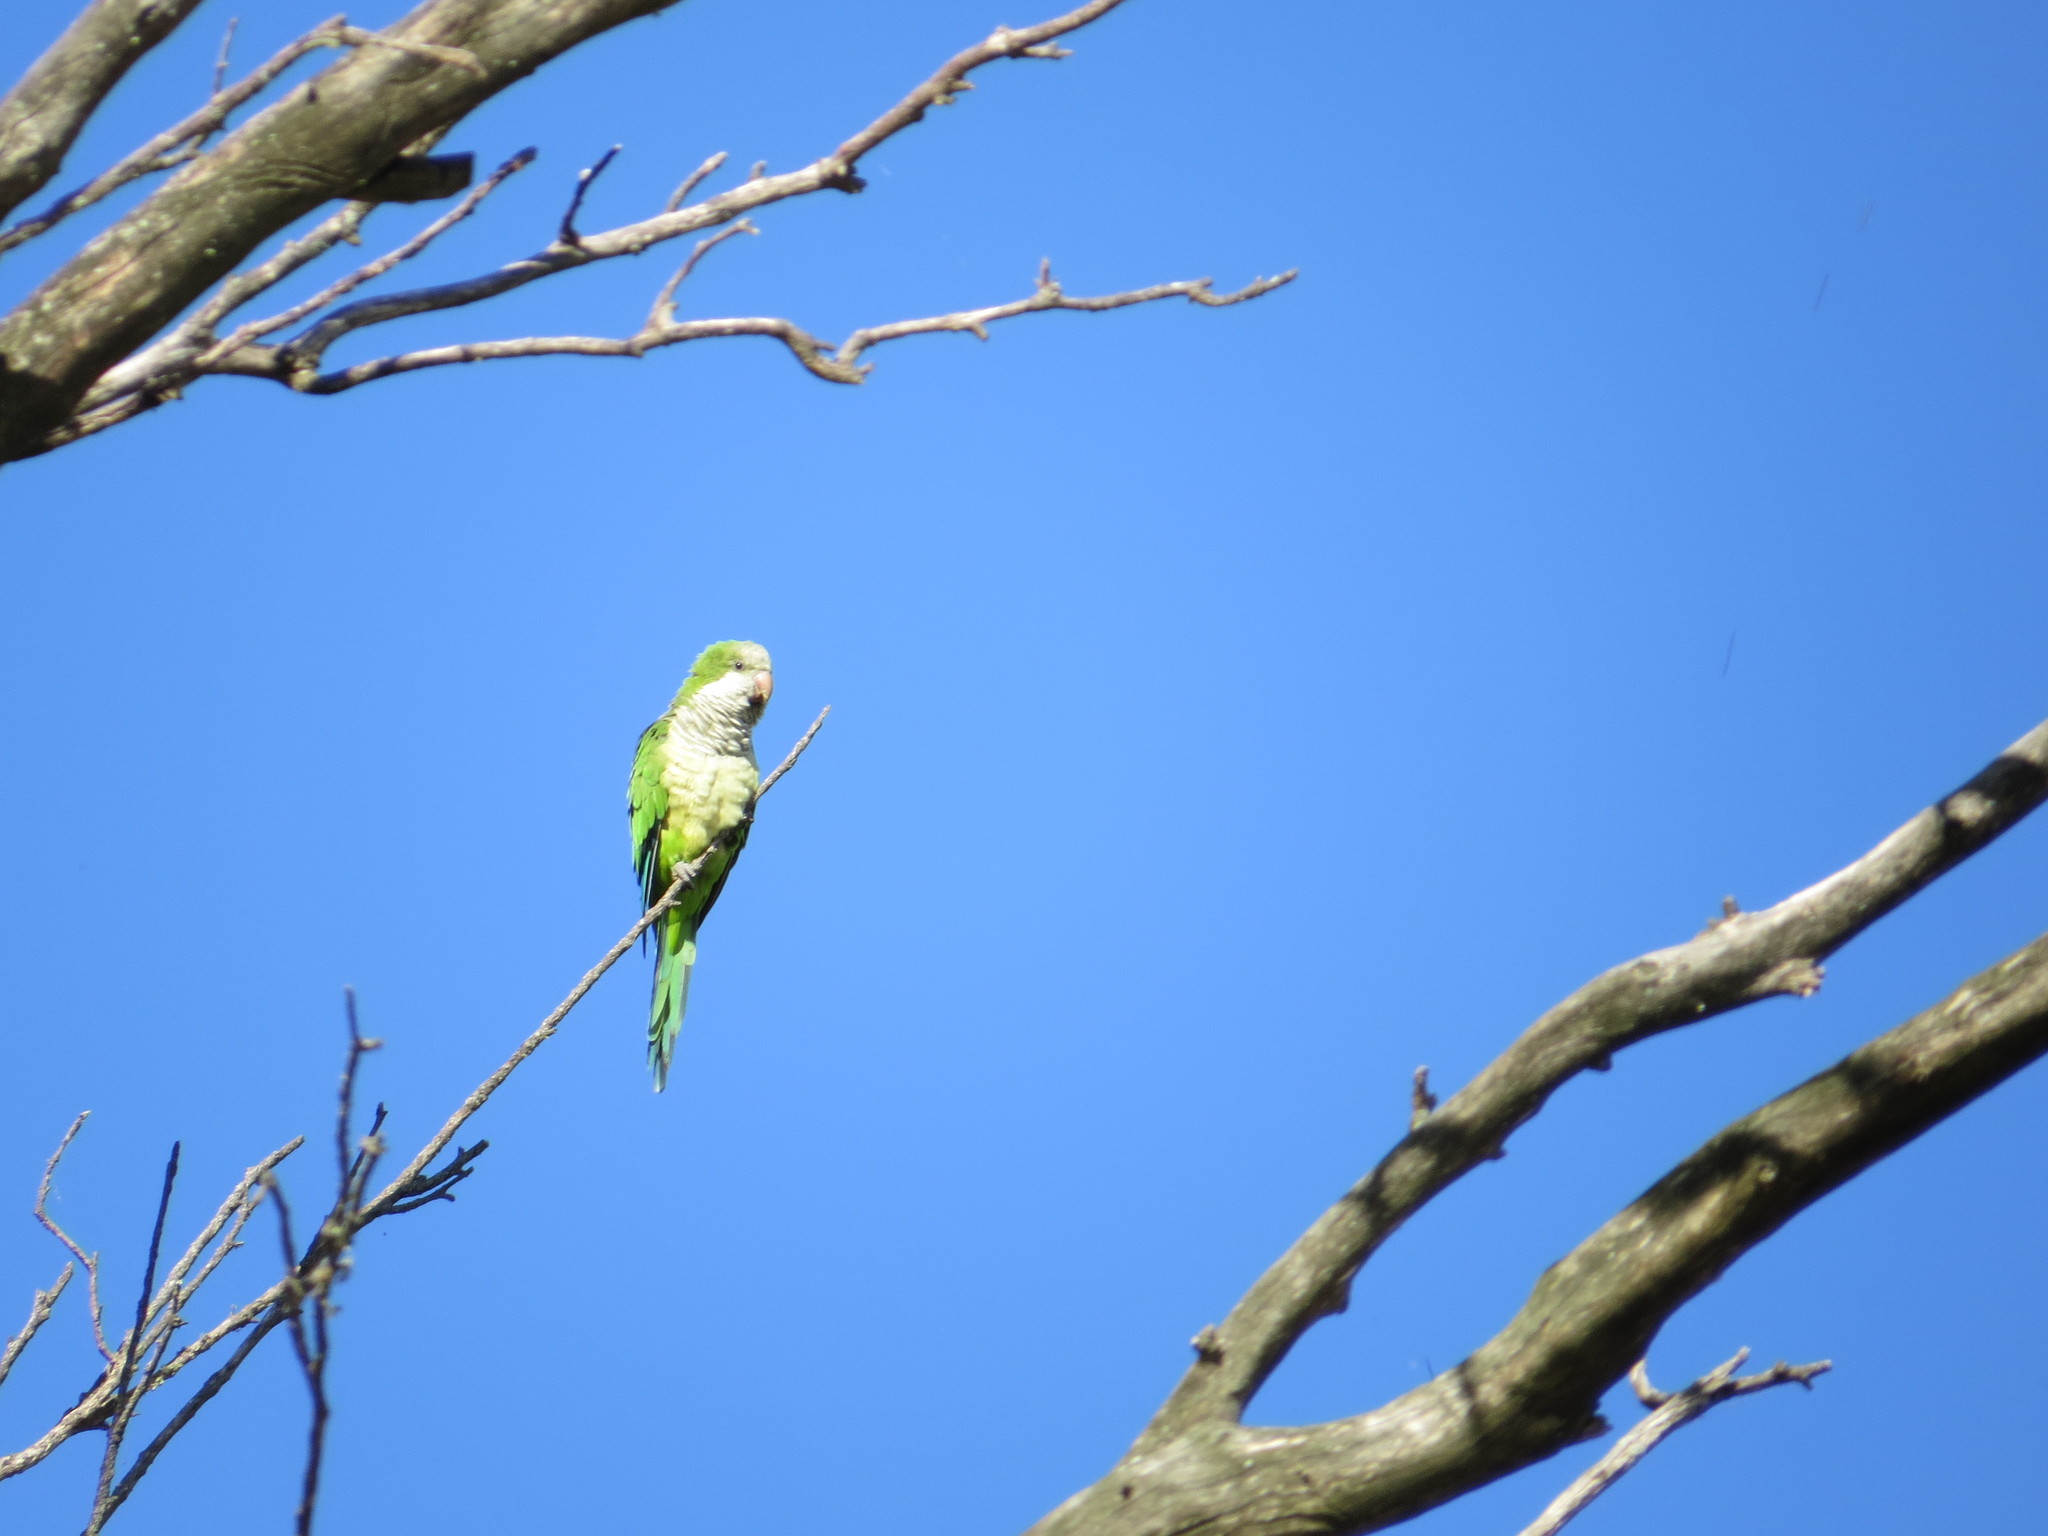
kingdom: Animalia
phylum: Chordata
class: Aves
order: Psittaciformes
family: Psittacidae
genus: Myiopsitta
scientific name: Myiopsitta monachus
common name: Monk parakeet
